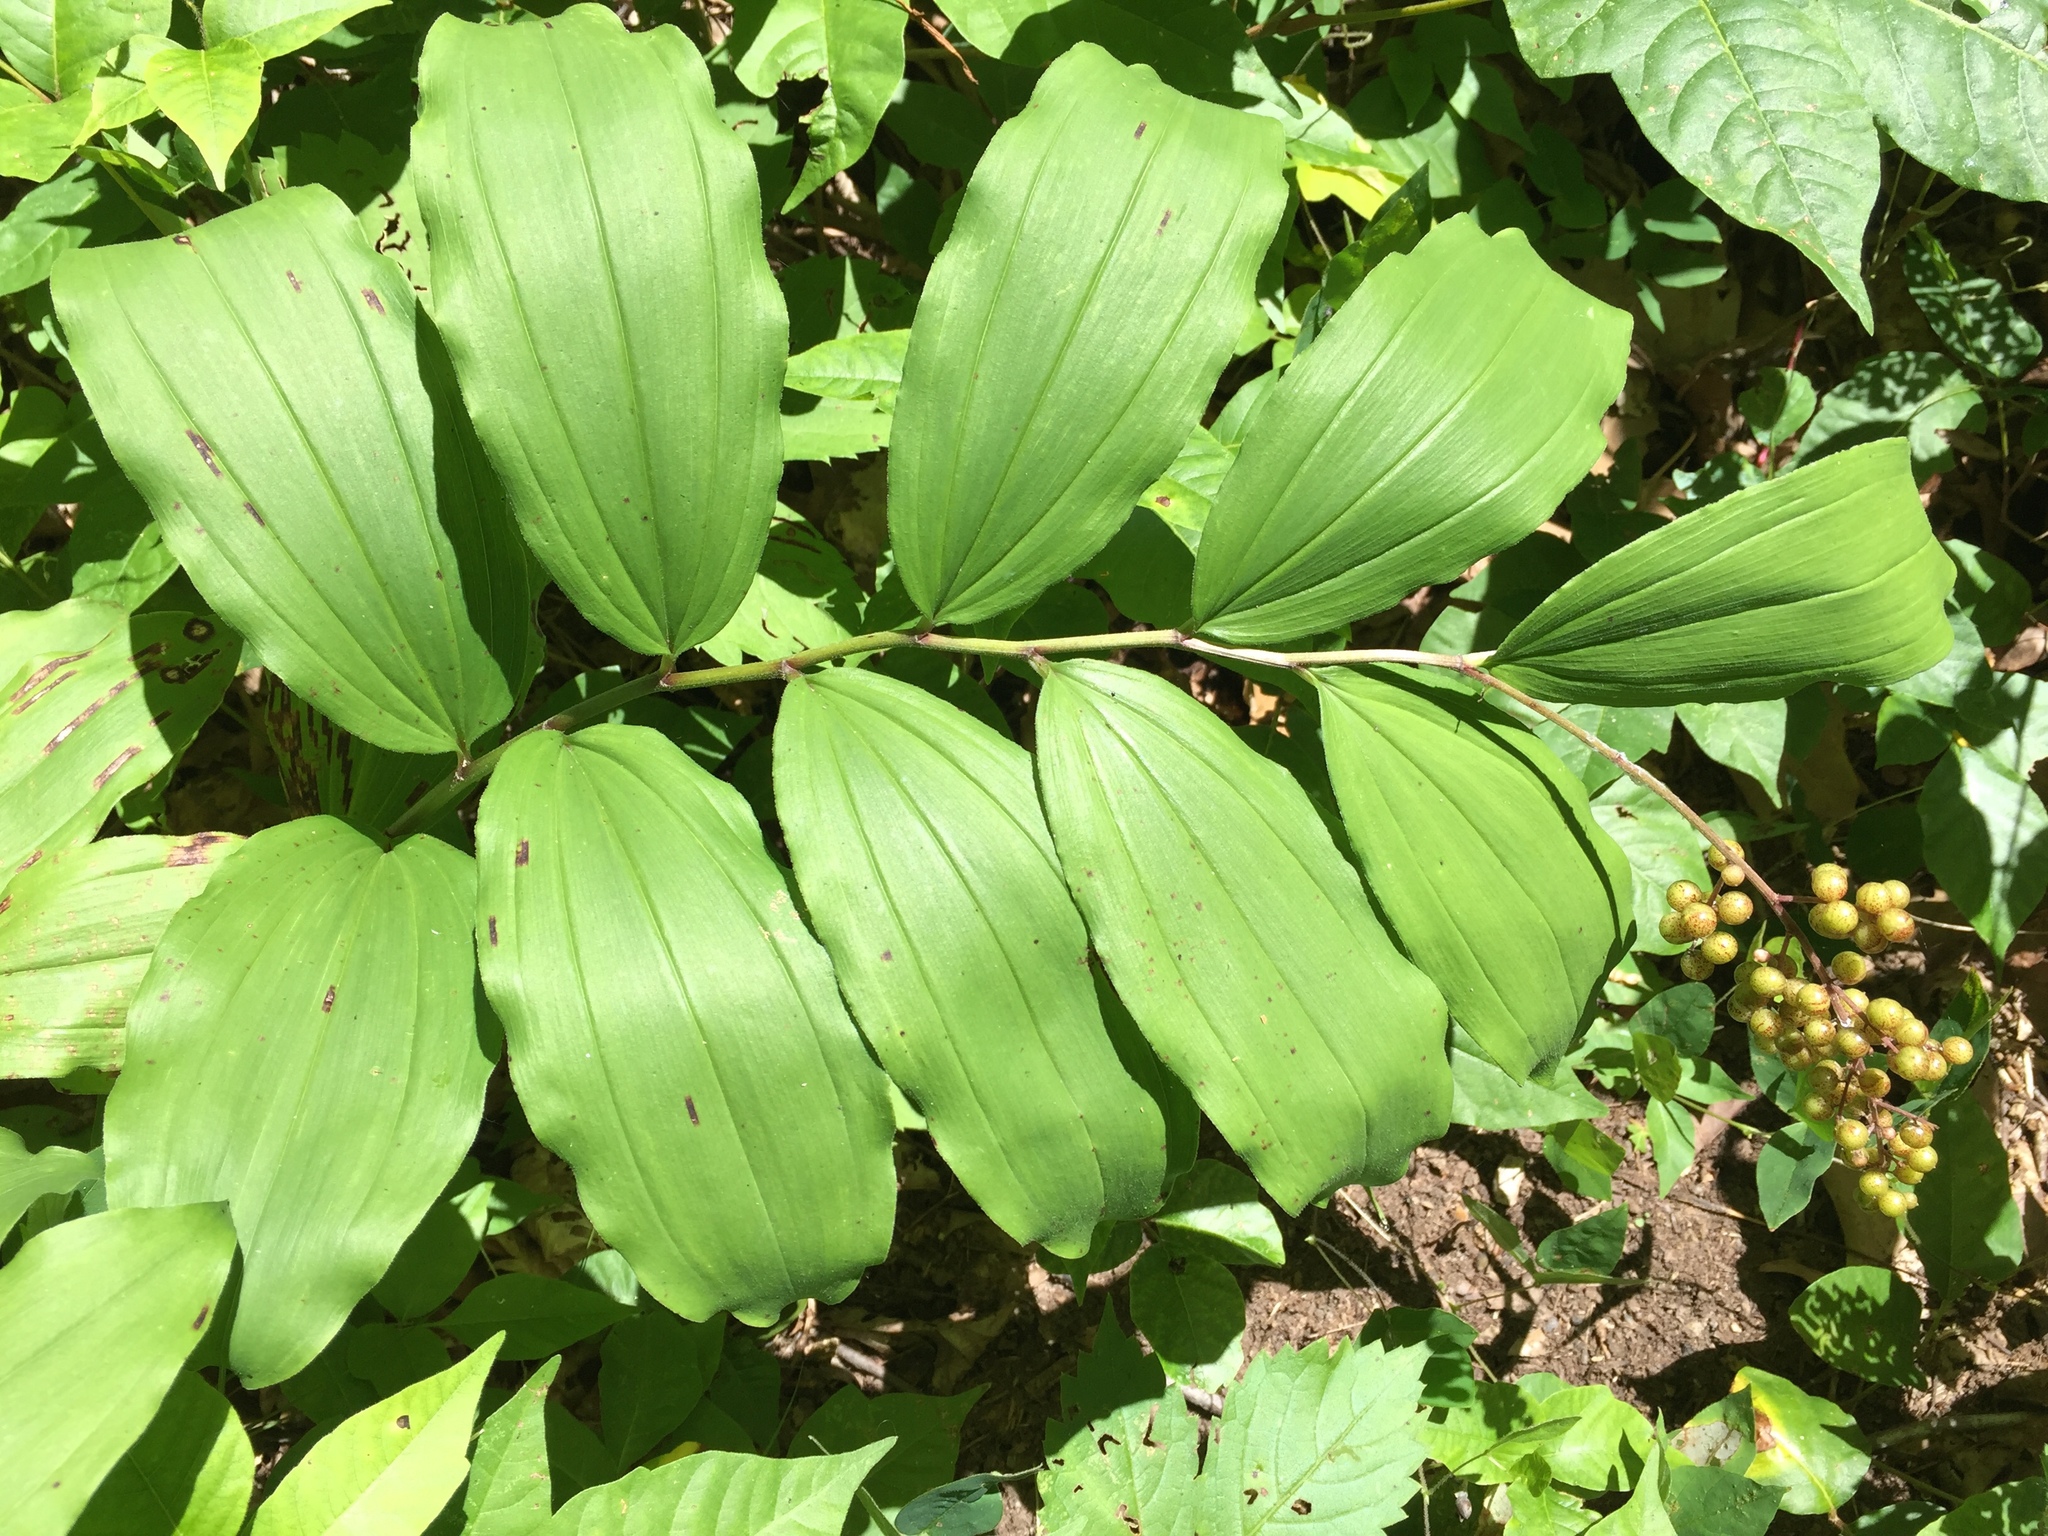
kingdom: Plantae
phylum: Tracheophyta
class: Liliopsida
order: Asparagales
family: Asparagaceae
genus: Maianthemum
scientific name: Maianthemum racemosum
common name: False spikenard
